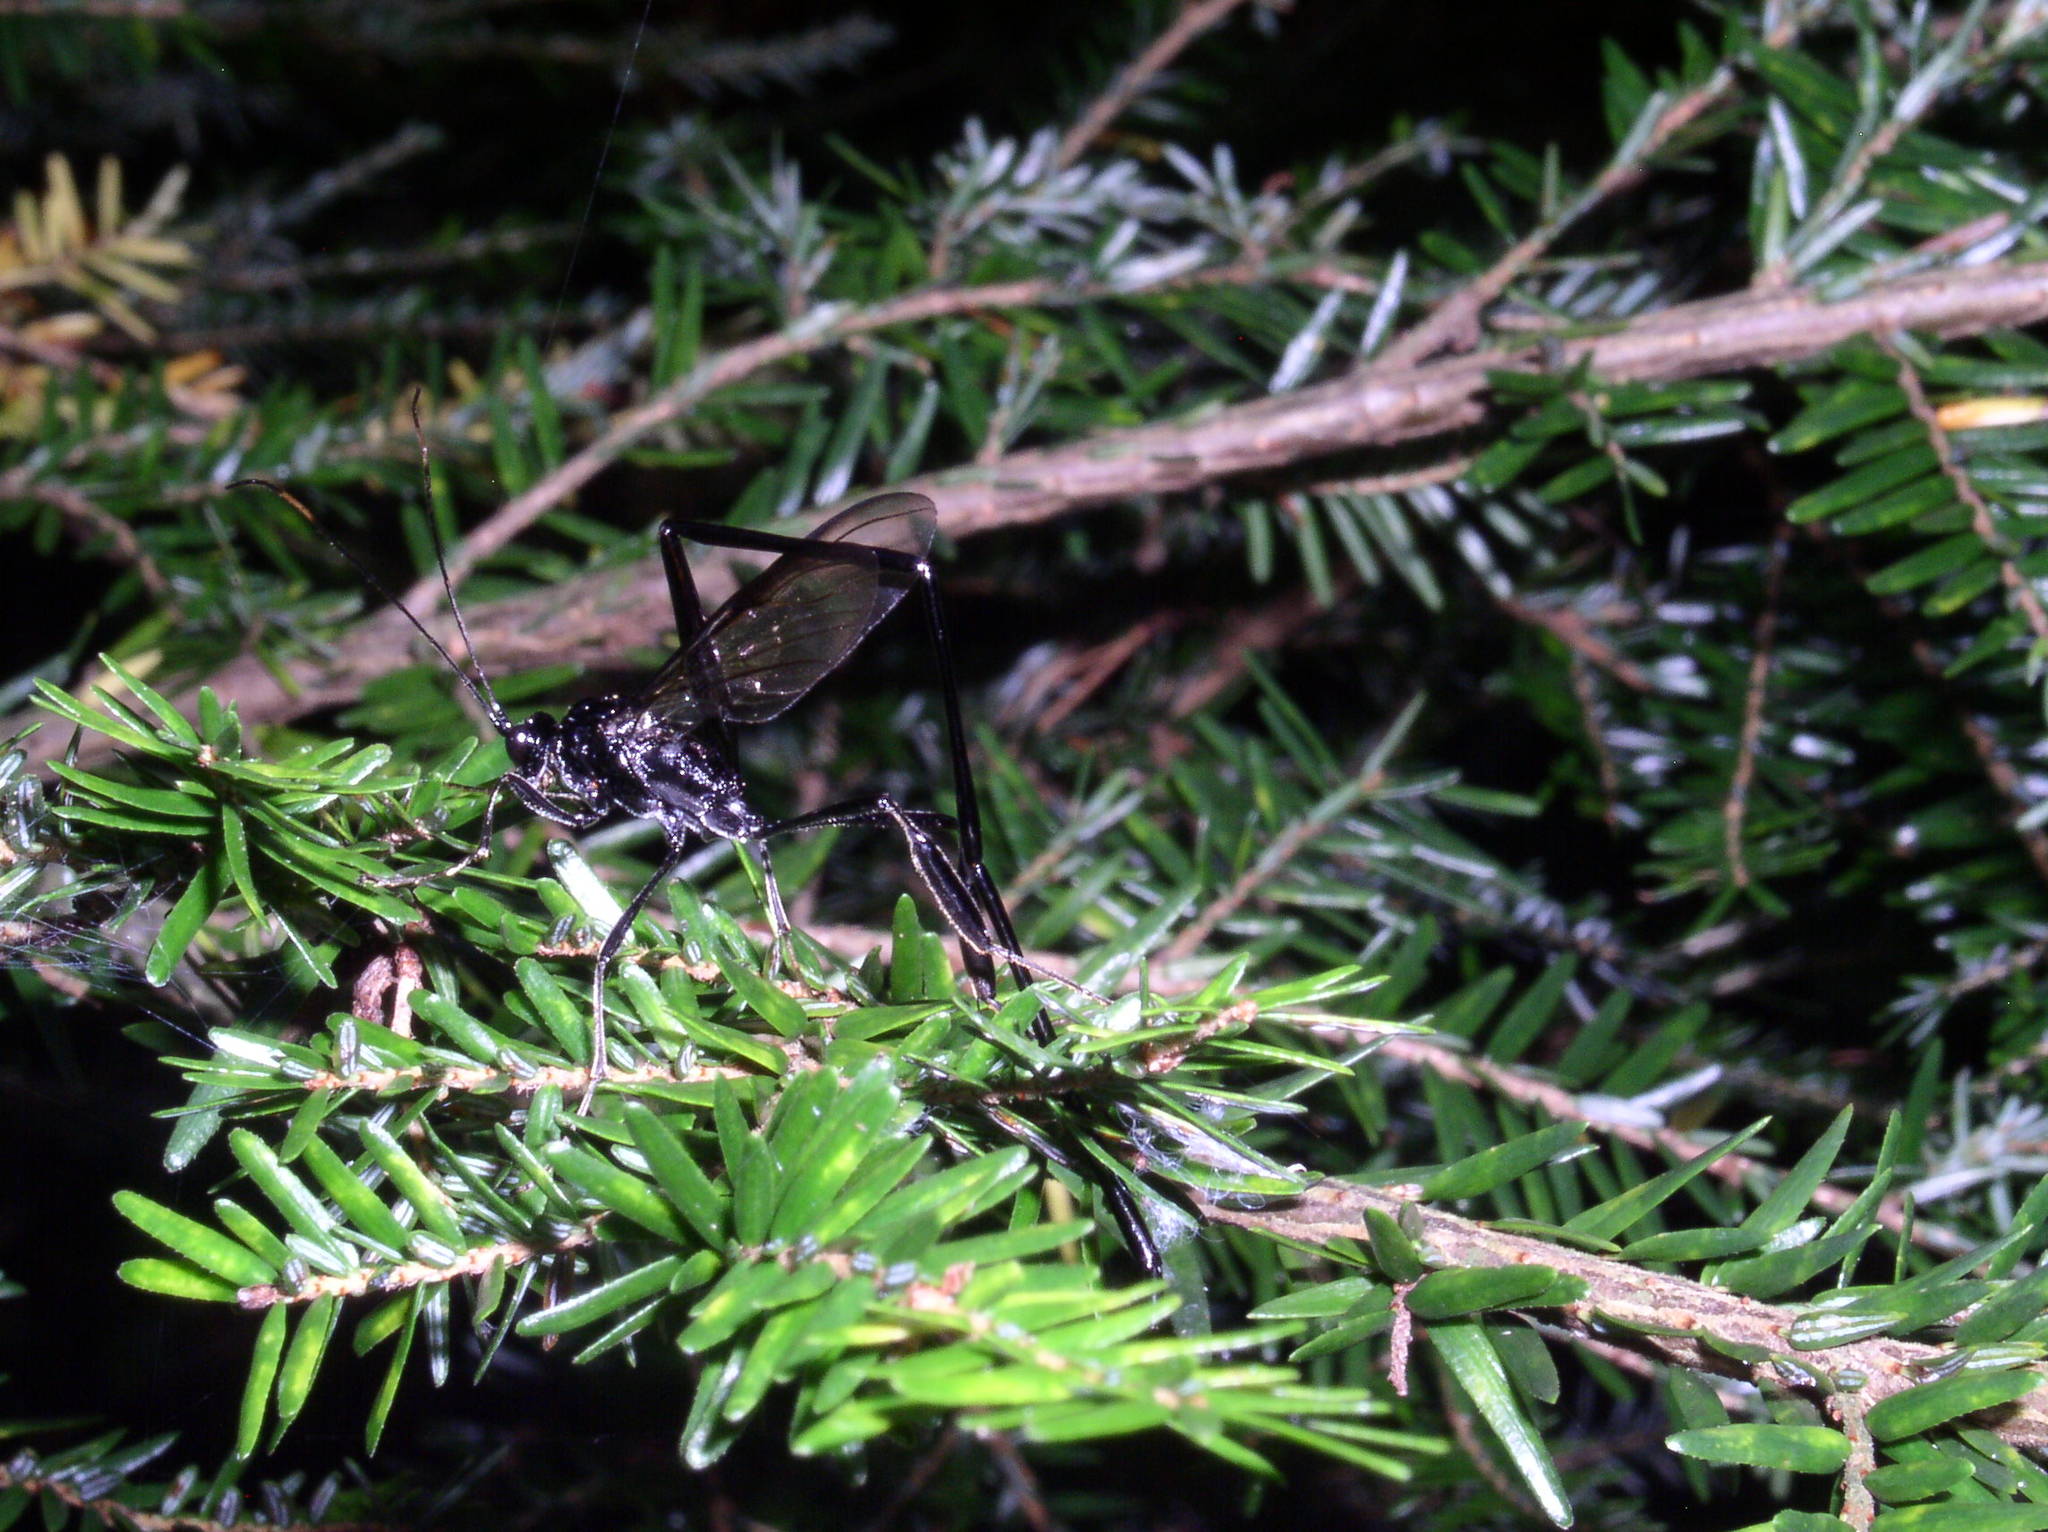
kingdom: Animalia
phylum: Arthropoda
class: Insecta
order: Hymenoptera
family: Pelecinidae
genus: Pelecinus
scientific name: Pelecinus polyturator
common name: American pelecinid wasp
